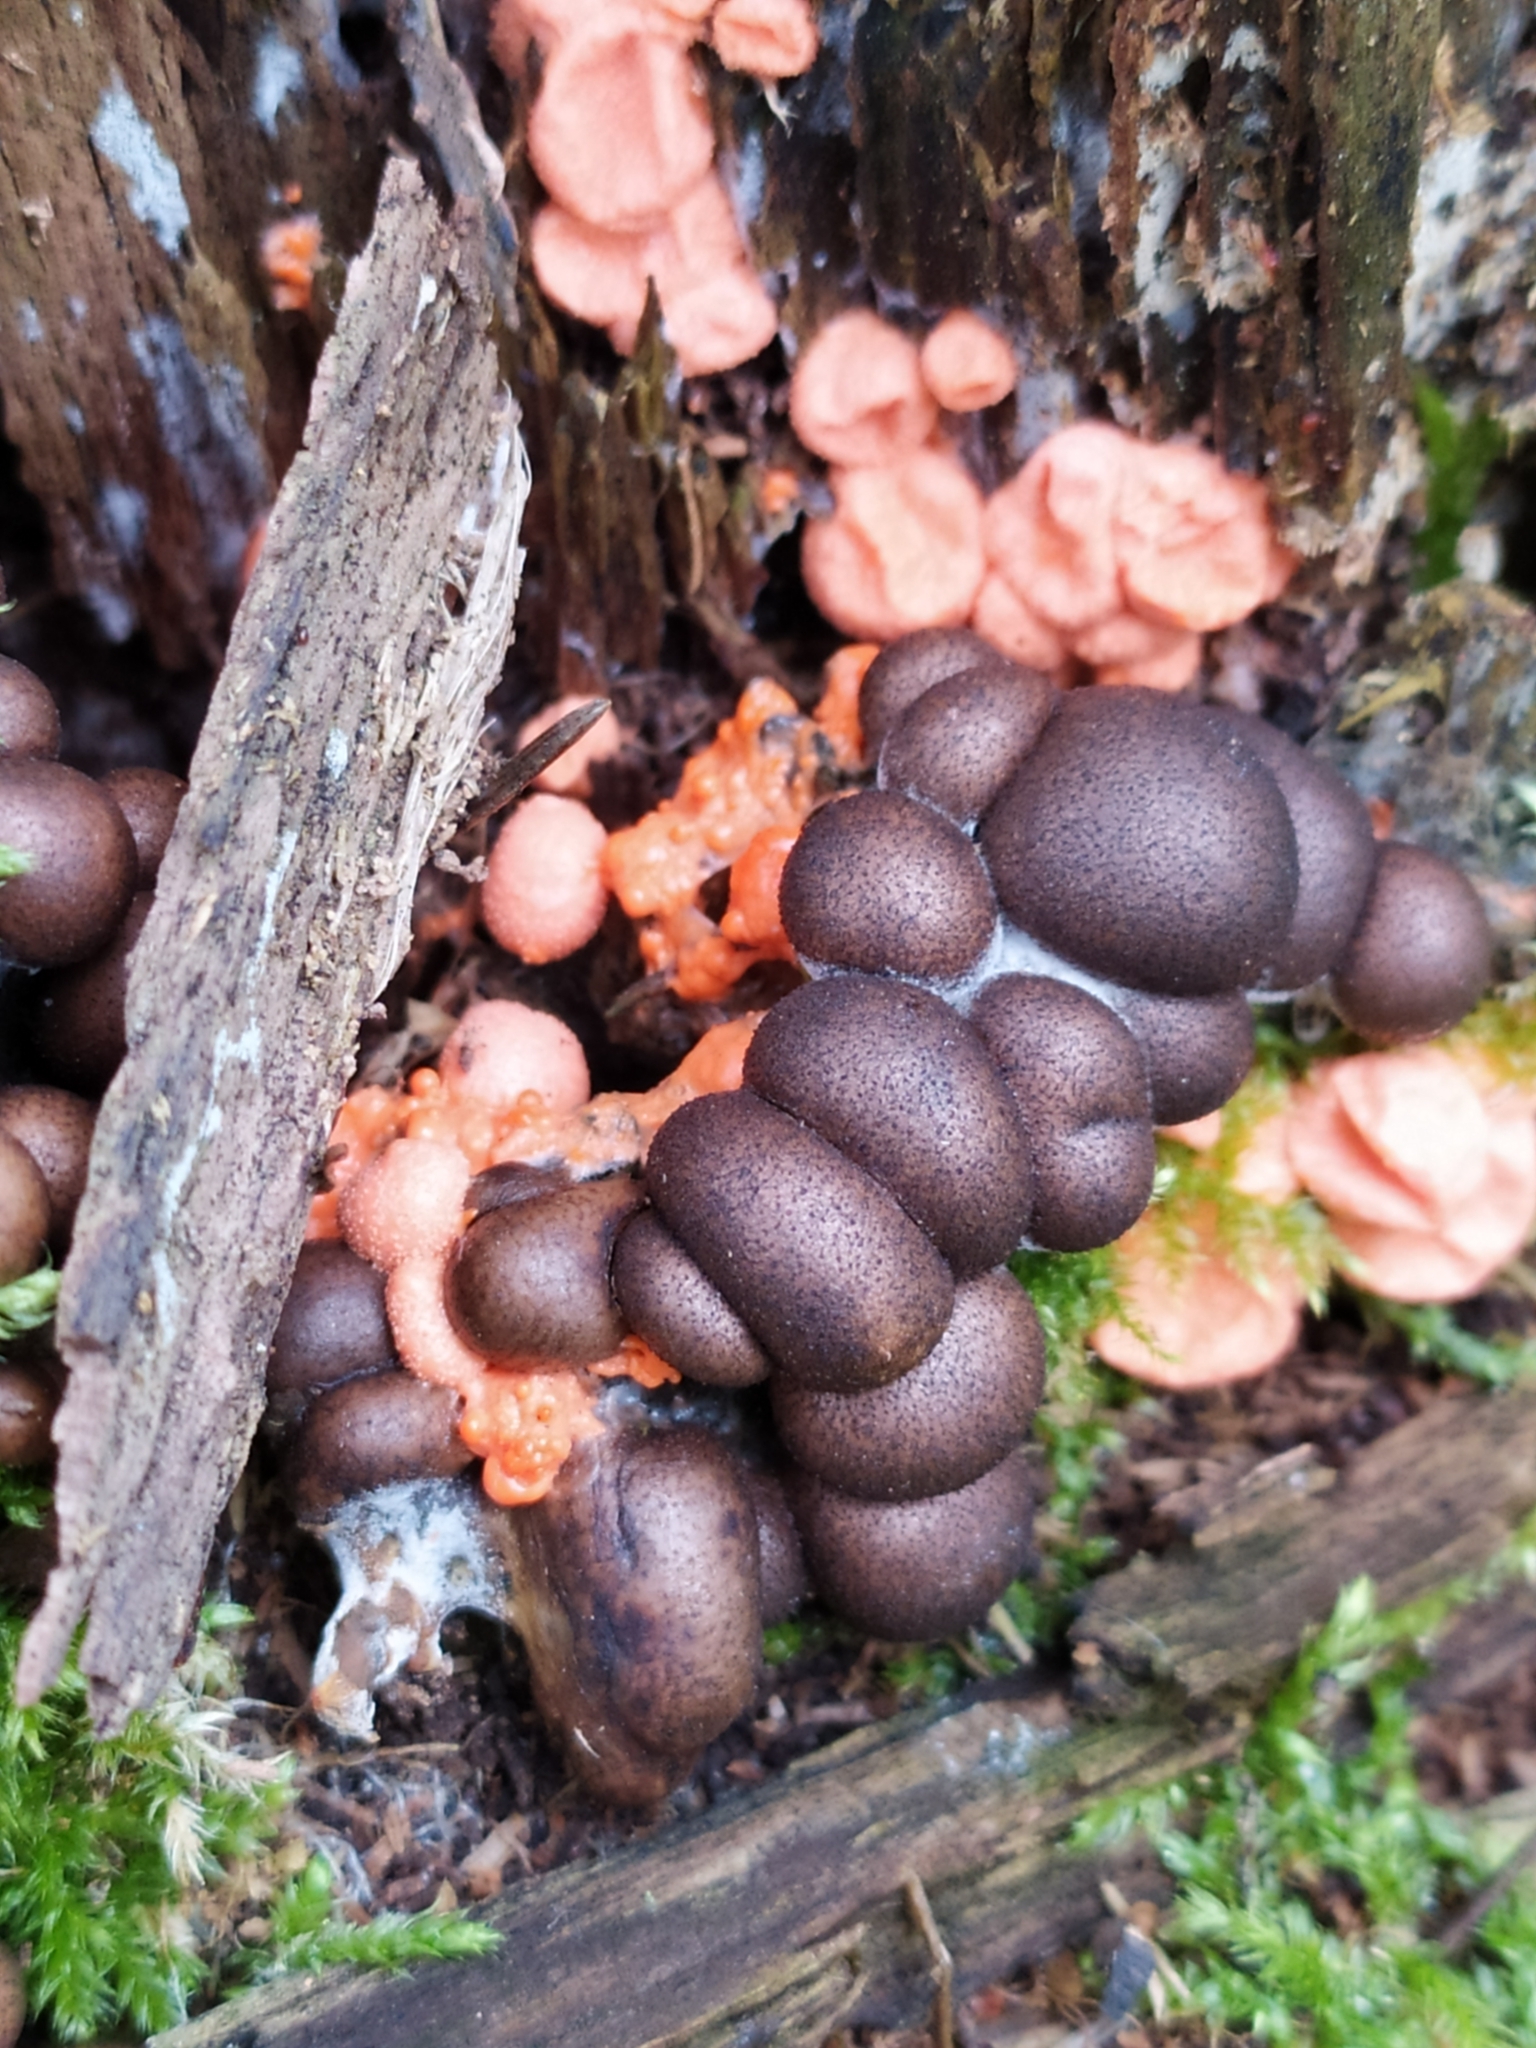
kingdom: Protozoa
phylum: Mycetozoa
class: Myxomycetes
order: Cribrariales
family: Tubiferaceae
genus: Lycogala
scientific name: Lycogala epidendrum
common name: Wolf's milk
